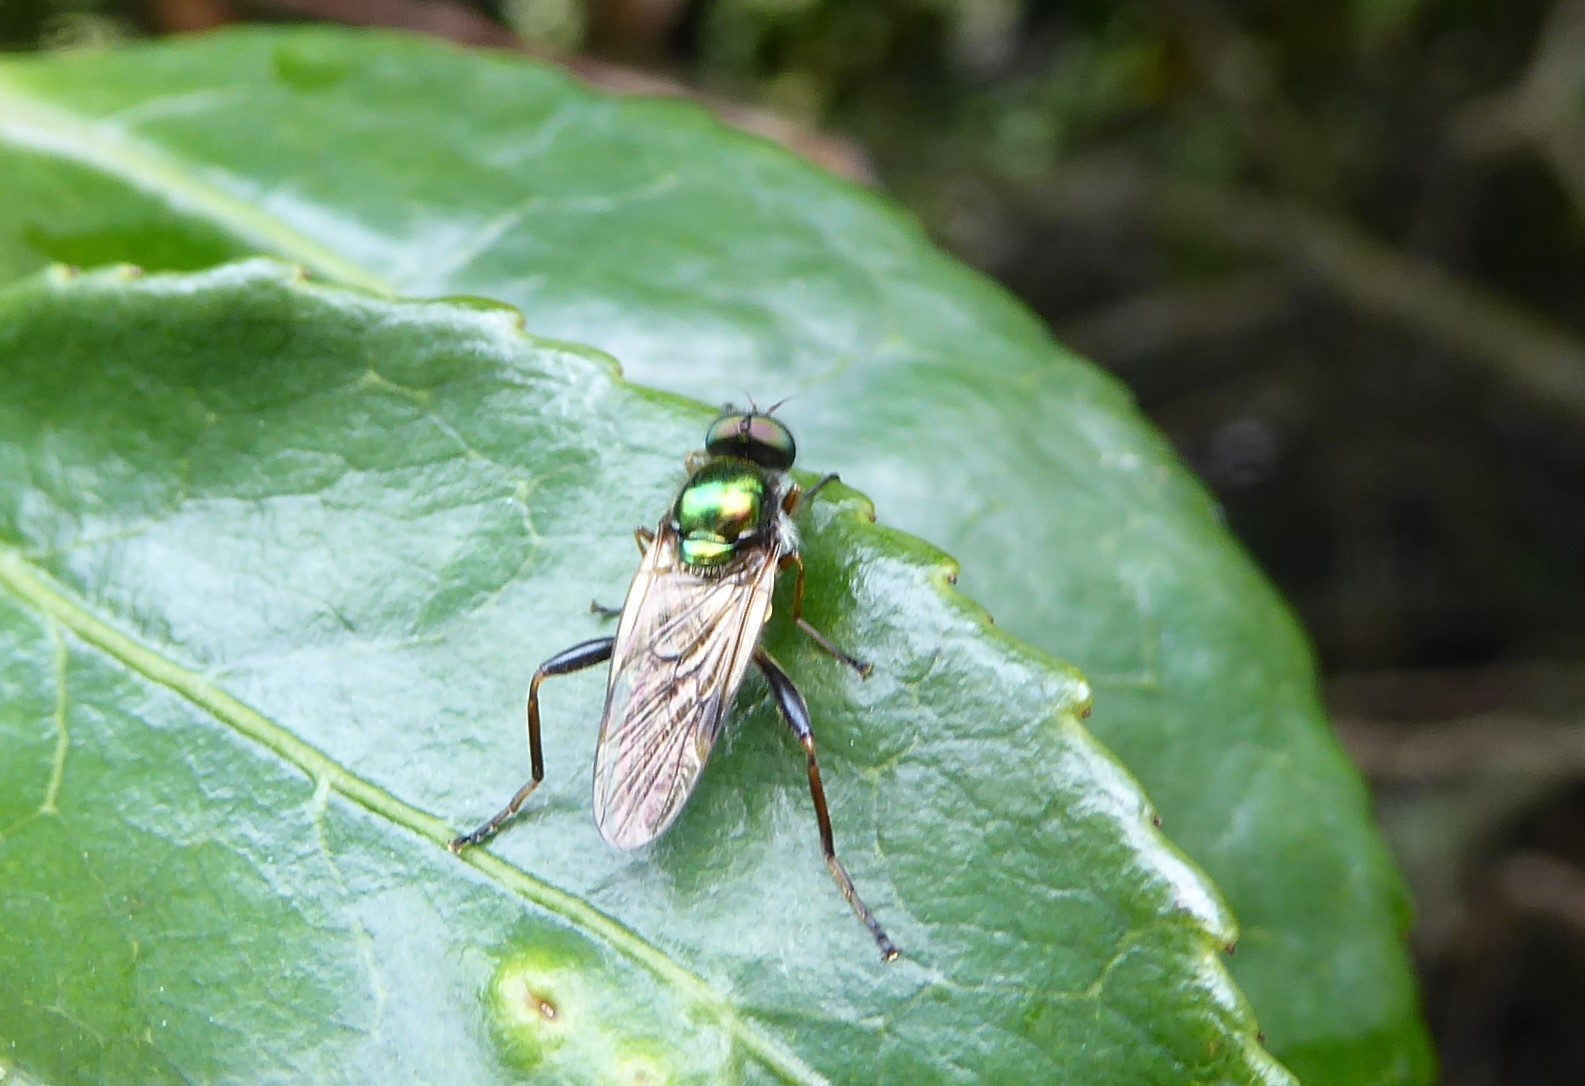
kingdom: Animalia
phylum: Arthropoda
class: Insecta
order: Diptera
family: Stratiomyidae
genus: Neactina
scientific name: Neactina simmondsii
